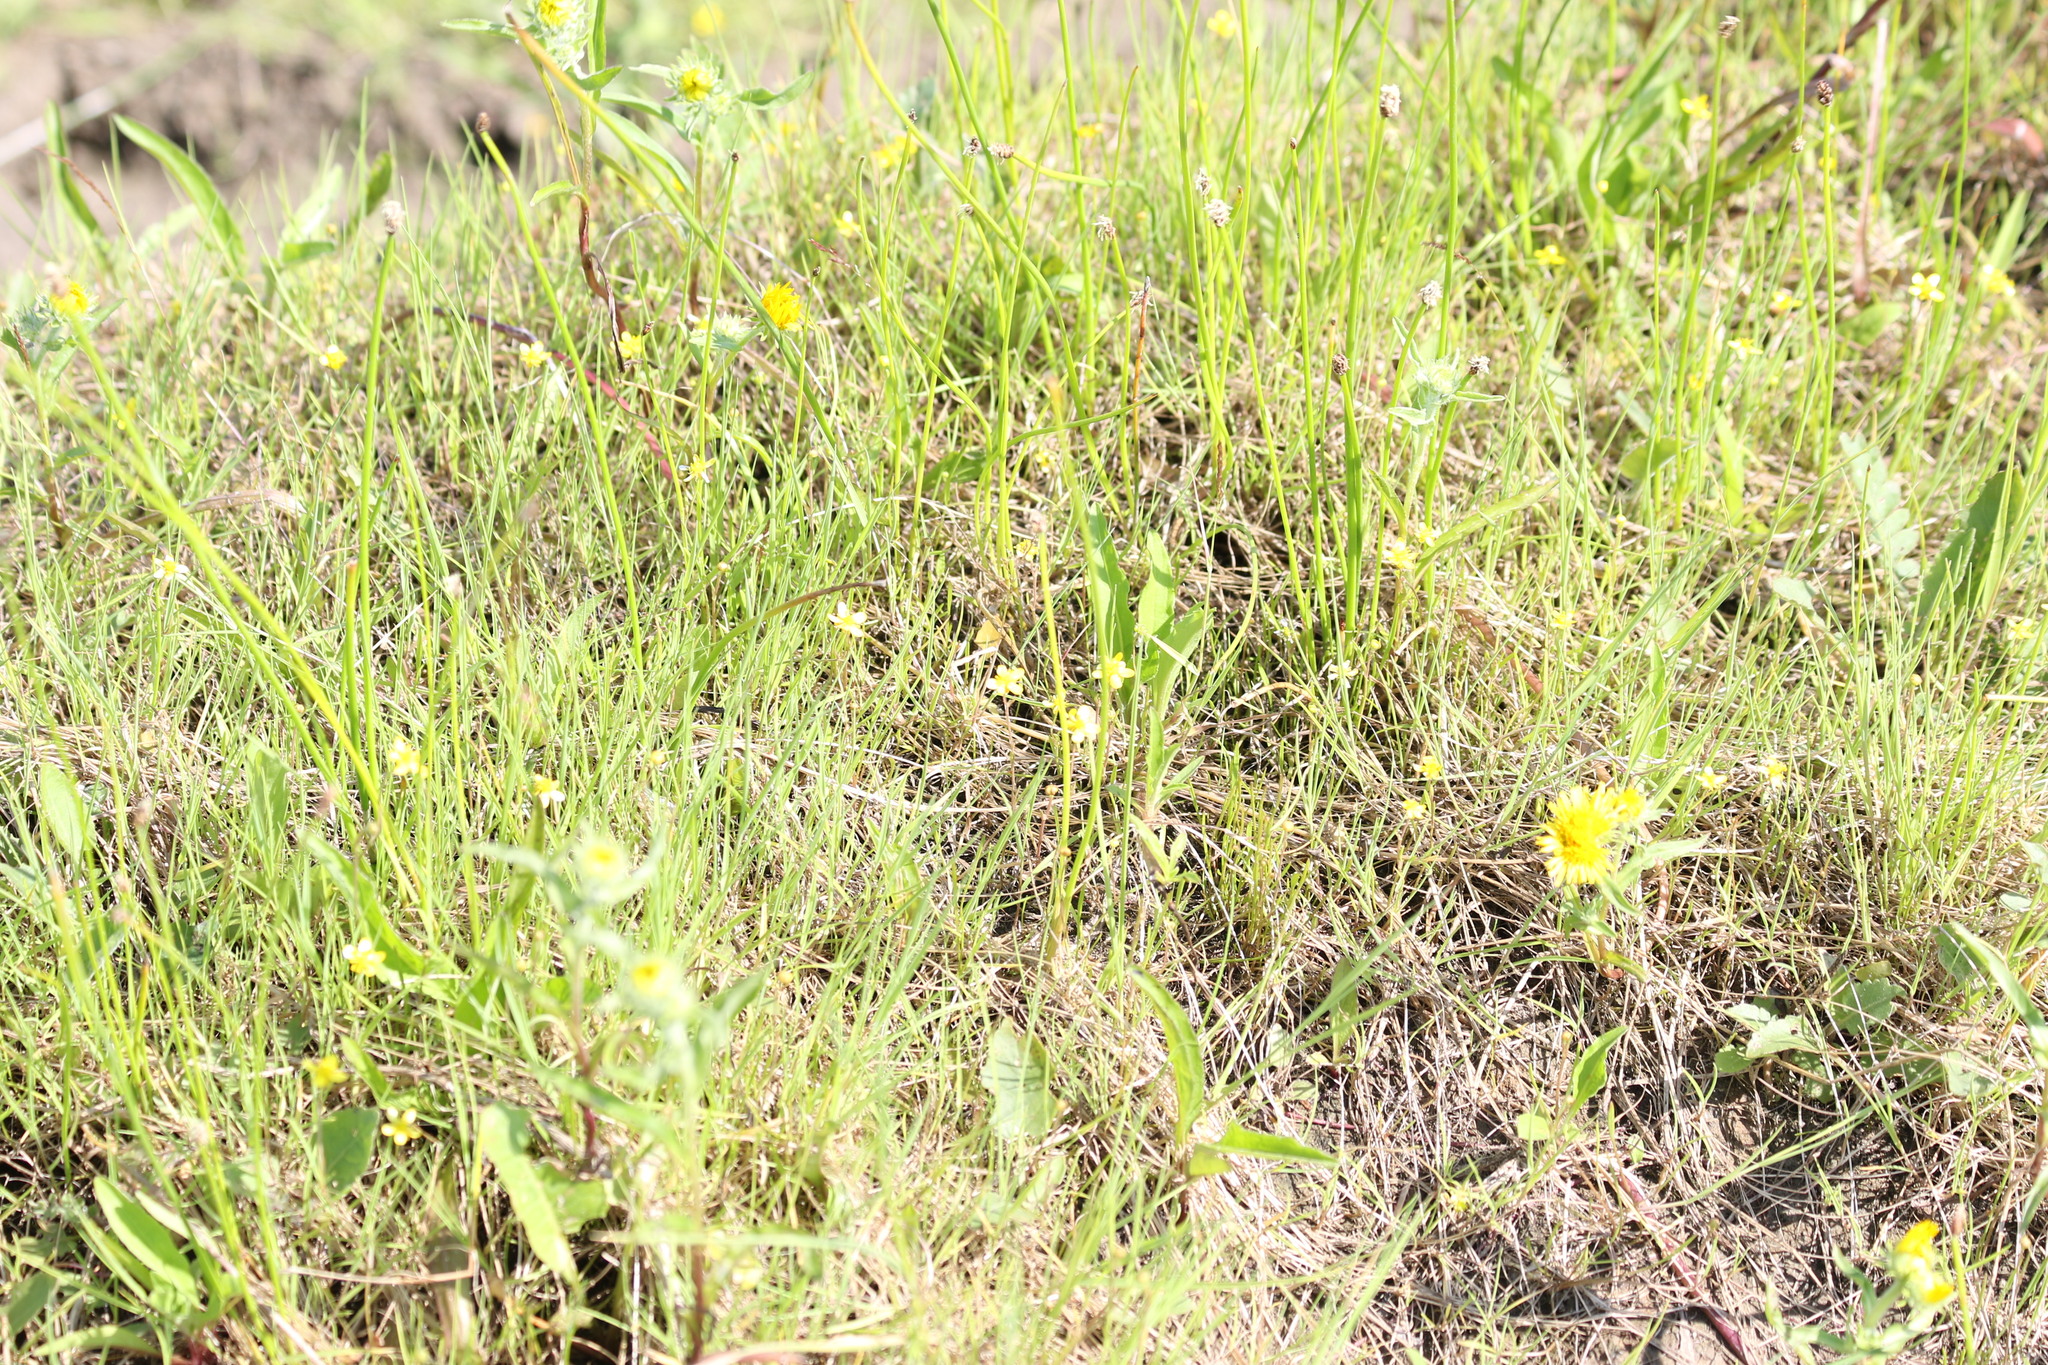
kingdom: Plantae
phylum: Tracheophyta
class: Magnoliopsida
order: Ranunculales
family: Ranunculaceae
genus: Ranunculus
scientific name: Ranunculus reptans
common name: Creeping spearwort
